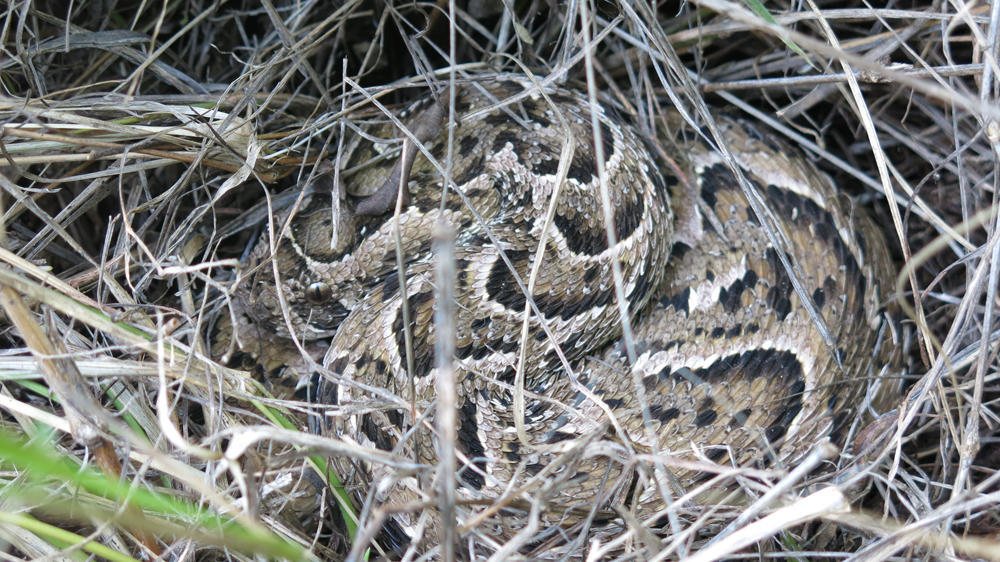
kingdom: Animalia
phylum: Chordata
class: Squamata
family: Viperidae
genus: Bitis
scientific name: Bitis arietans
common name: Puff adder
